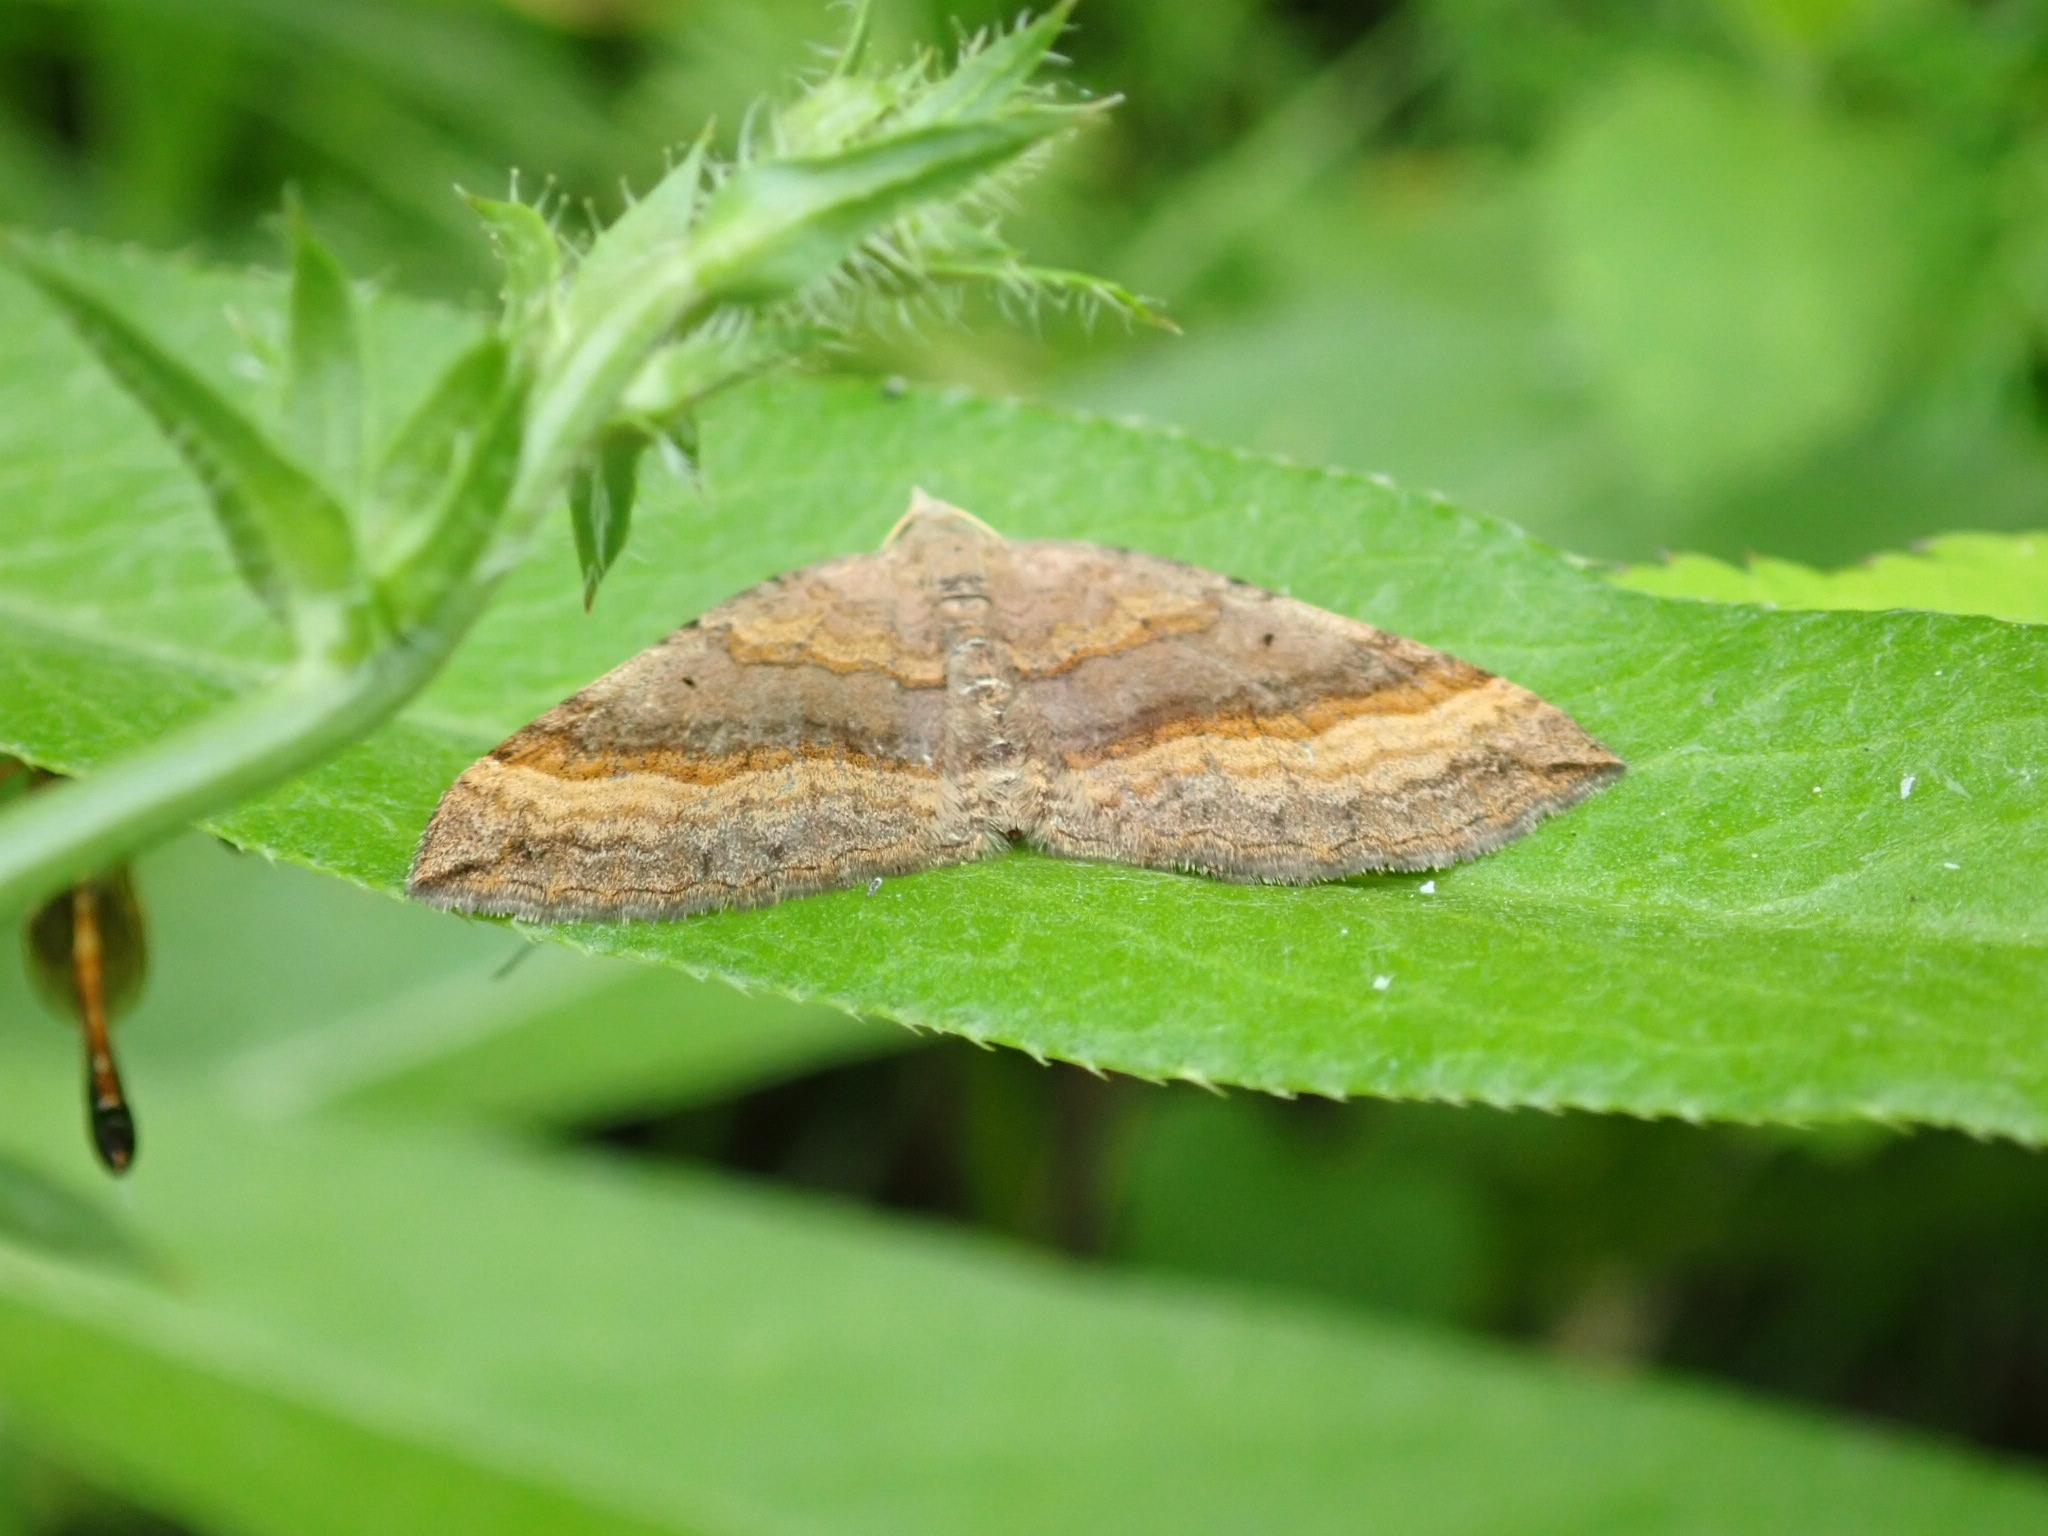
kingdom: Animalia
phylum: Arthropoda
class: Insecta
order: Lepidoptera
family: Geometridae
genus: Scotopteryx
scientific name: Scotopteryx chenopodiata
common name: Shaded broad-bar
